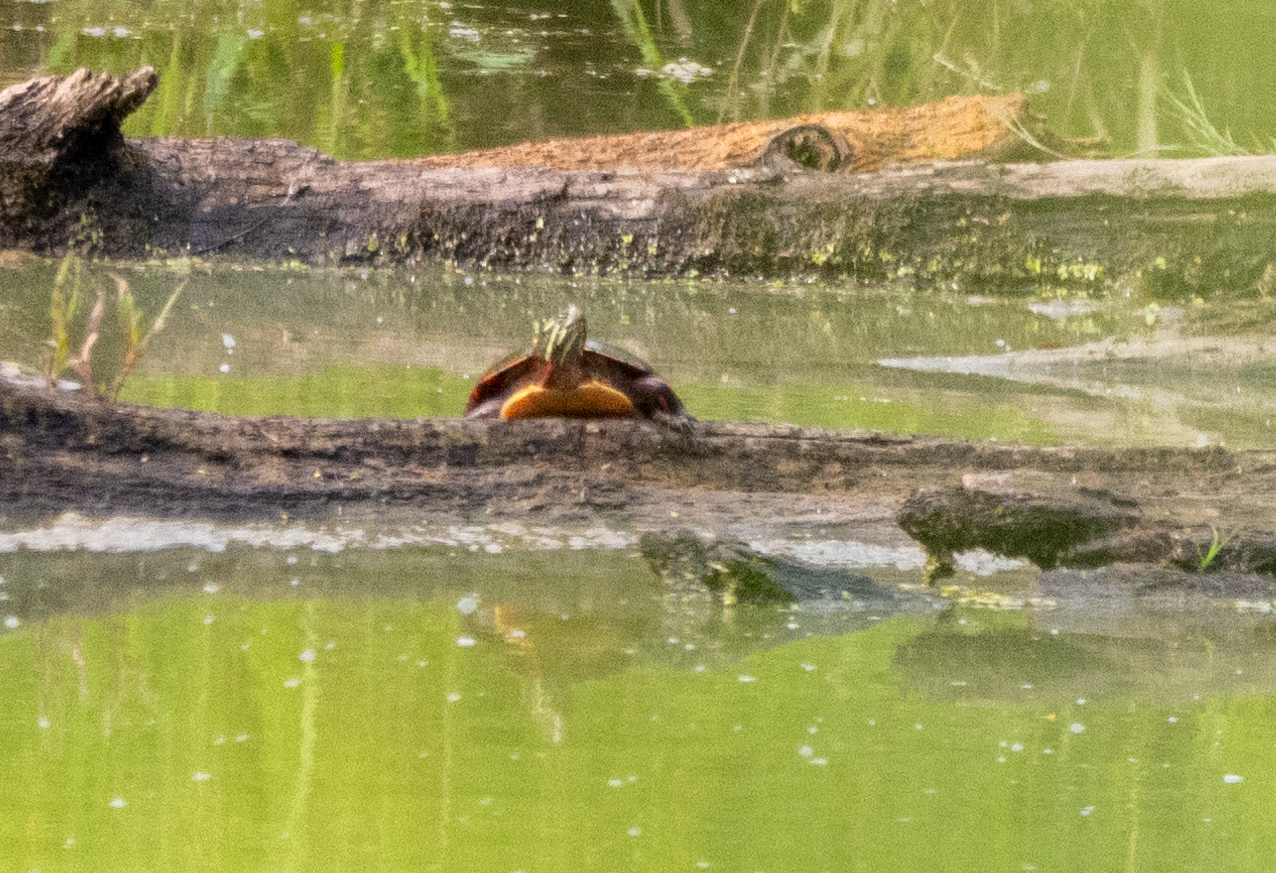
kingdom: Animalia
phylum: Chordata
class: Testudines
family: Emydidae
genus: Chrysemys
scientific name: Chrysemys picta
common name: Painted turtle
